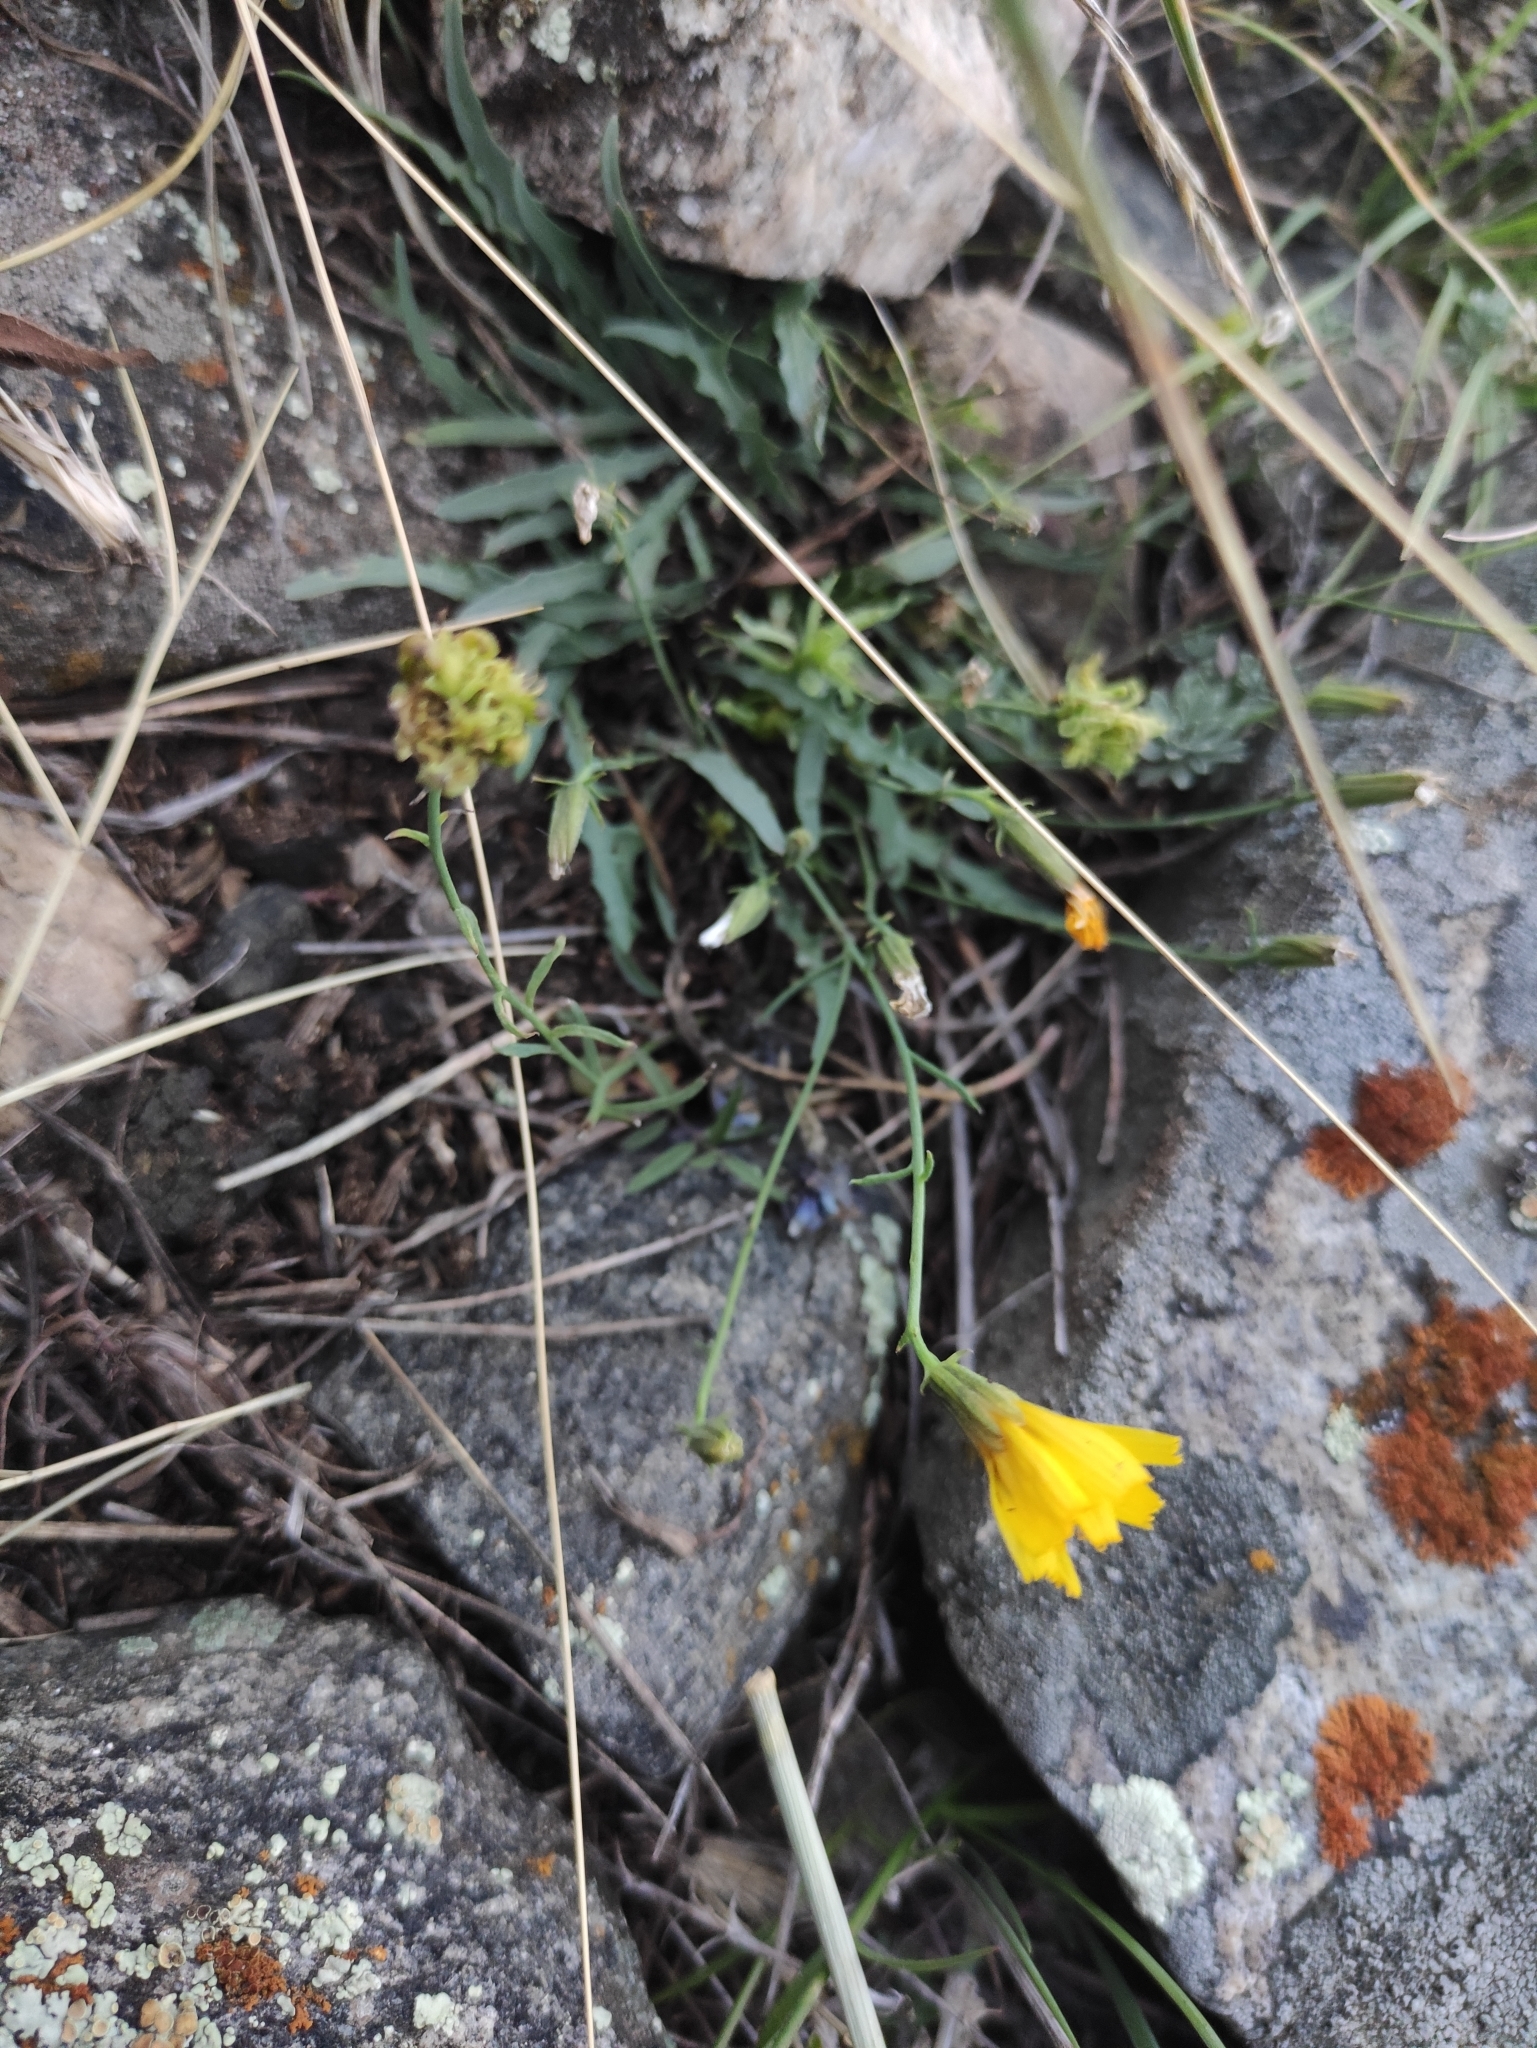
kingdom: Plantae
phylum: Tracheophyta
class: Magnoliopsida
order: Asterales
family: Asteraceae
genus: Ixeris
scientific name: Ixeris chinensis
